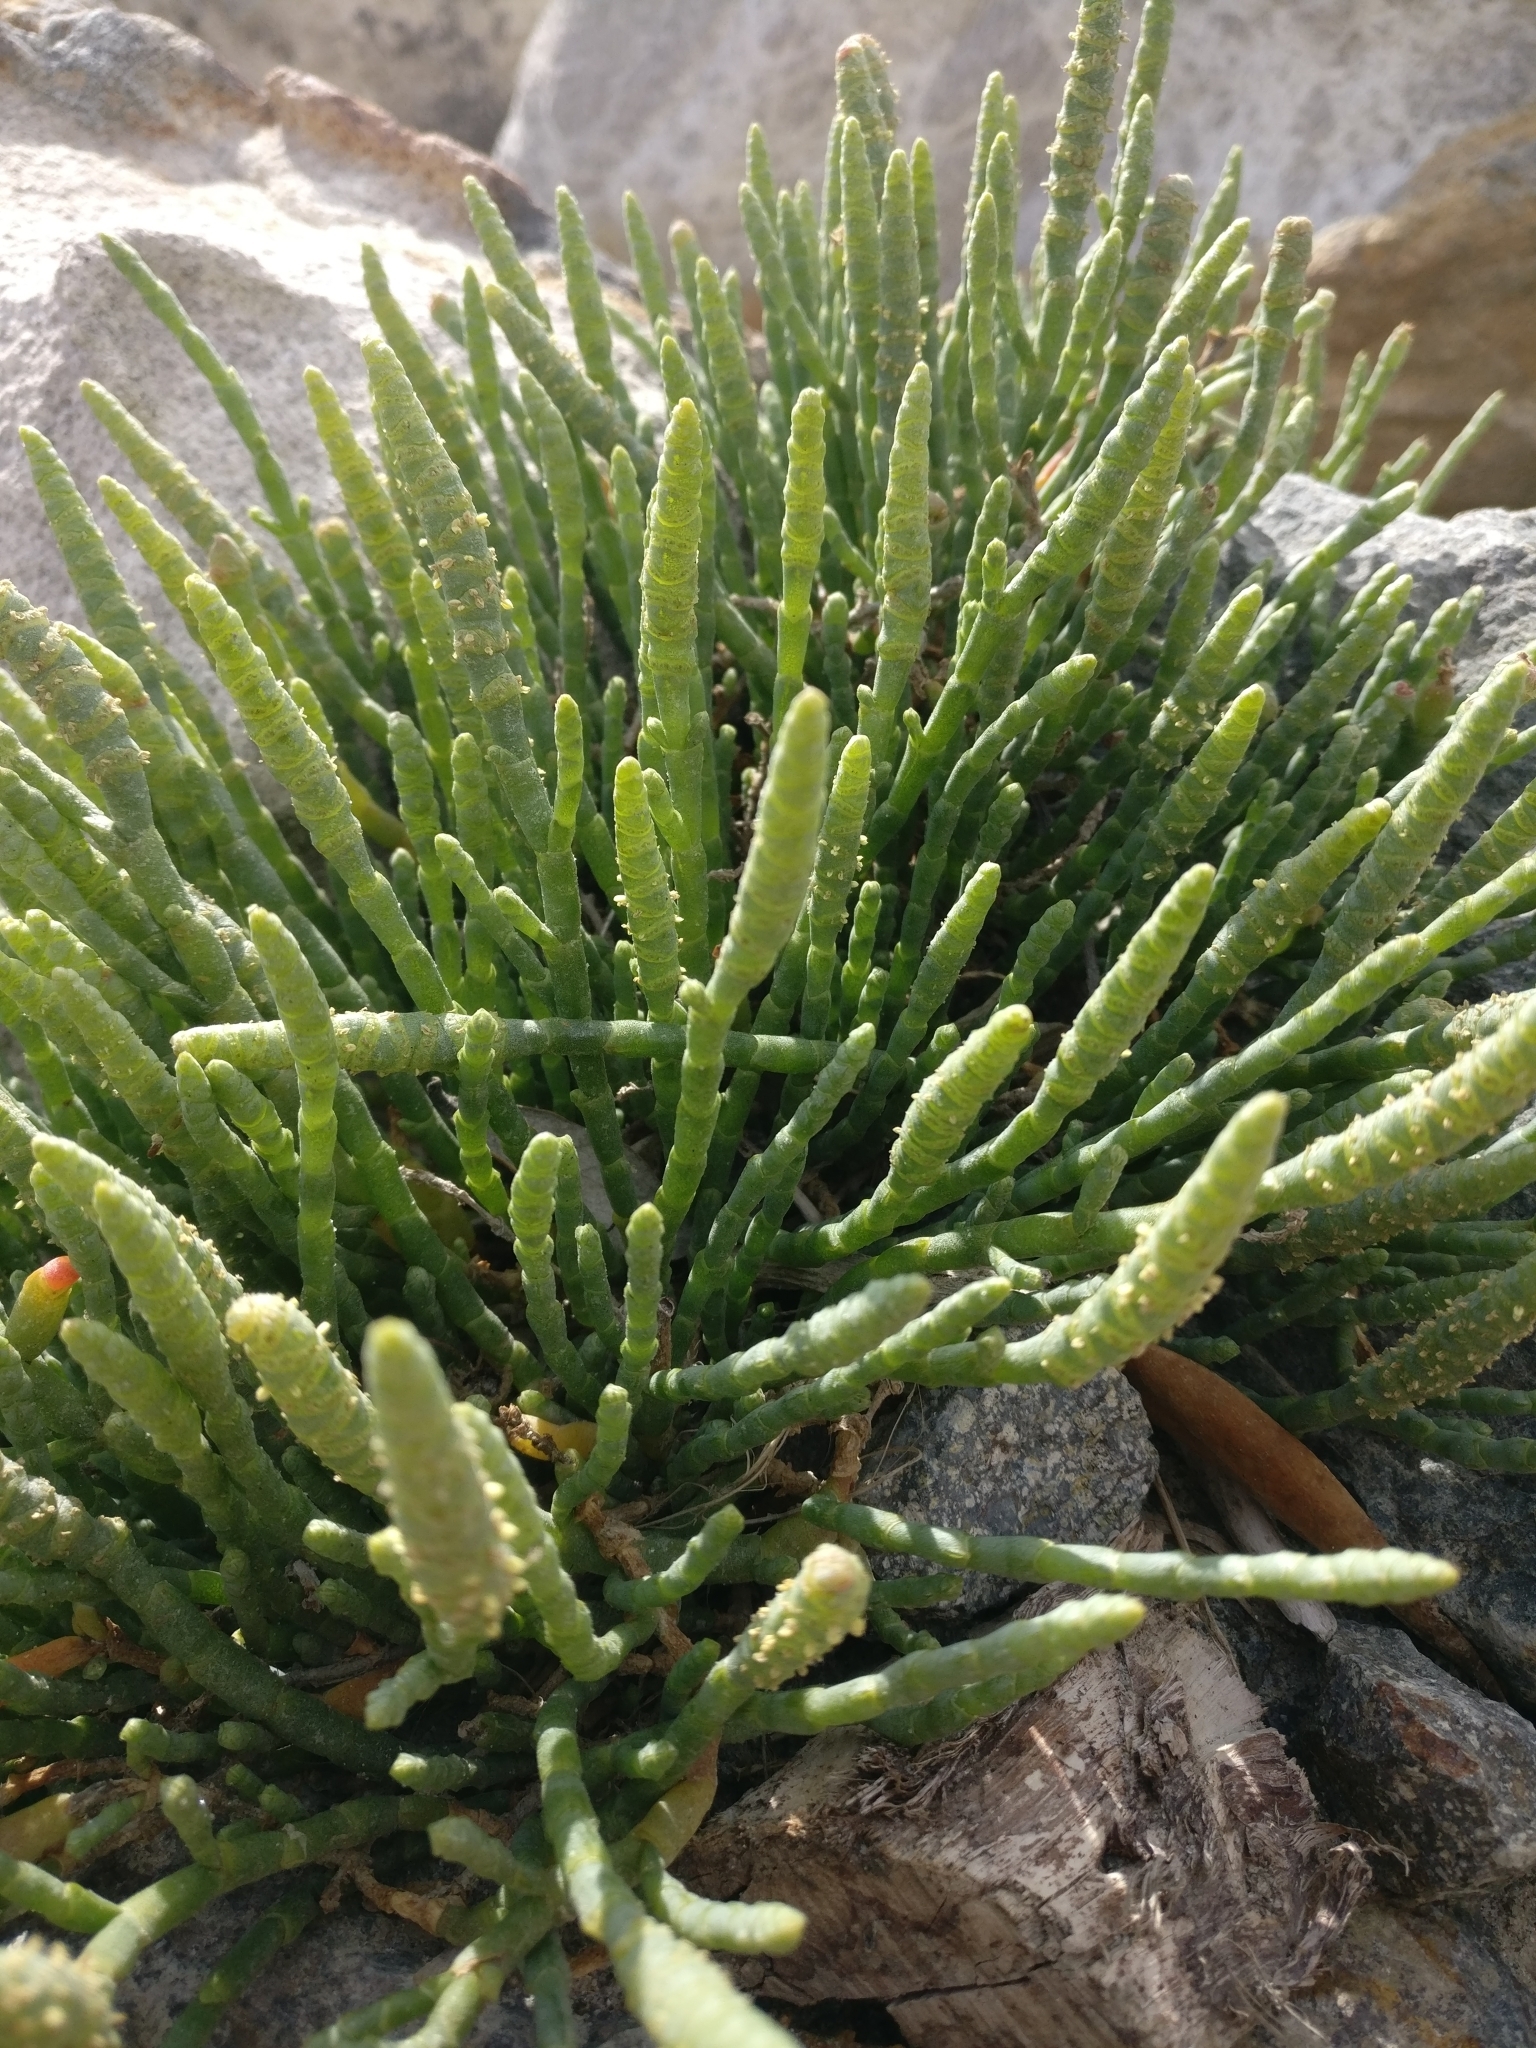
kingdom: Plantae
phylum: Tracheophyta
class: Magnoliopsida
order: Caryophyllales
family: Amaranthaceae
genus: Salicornia
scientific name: Salicornia quinqueflora
